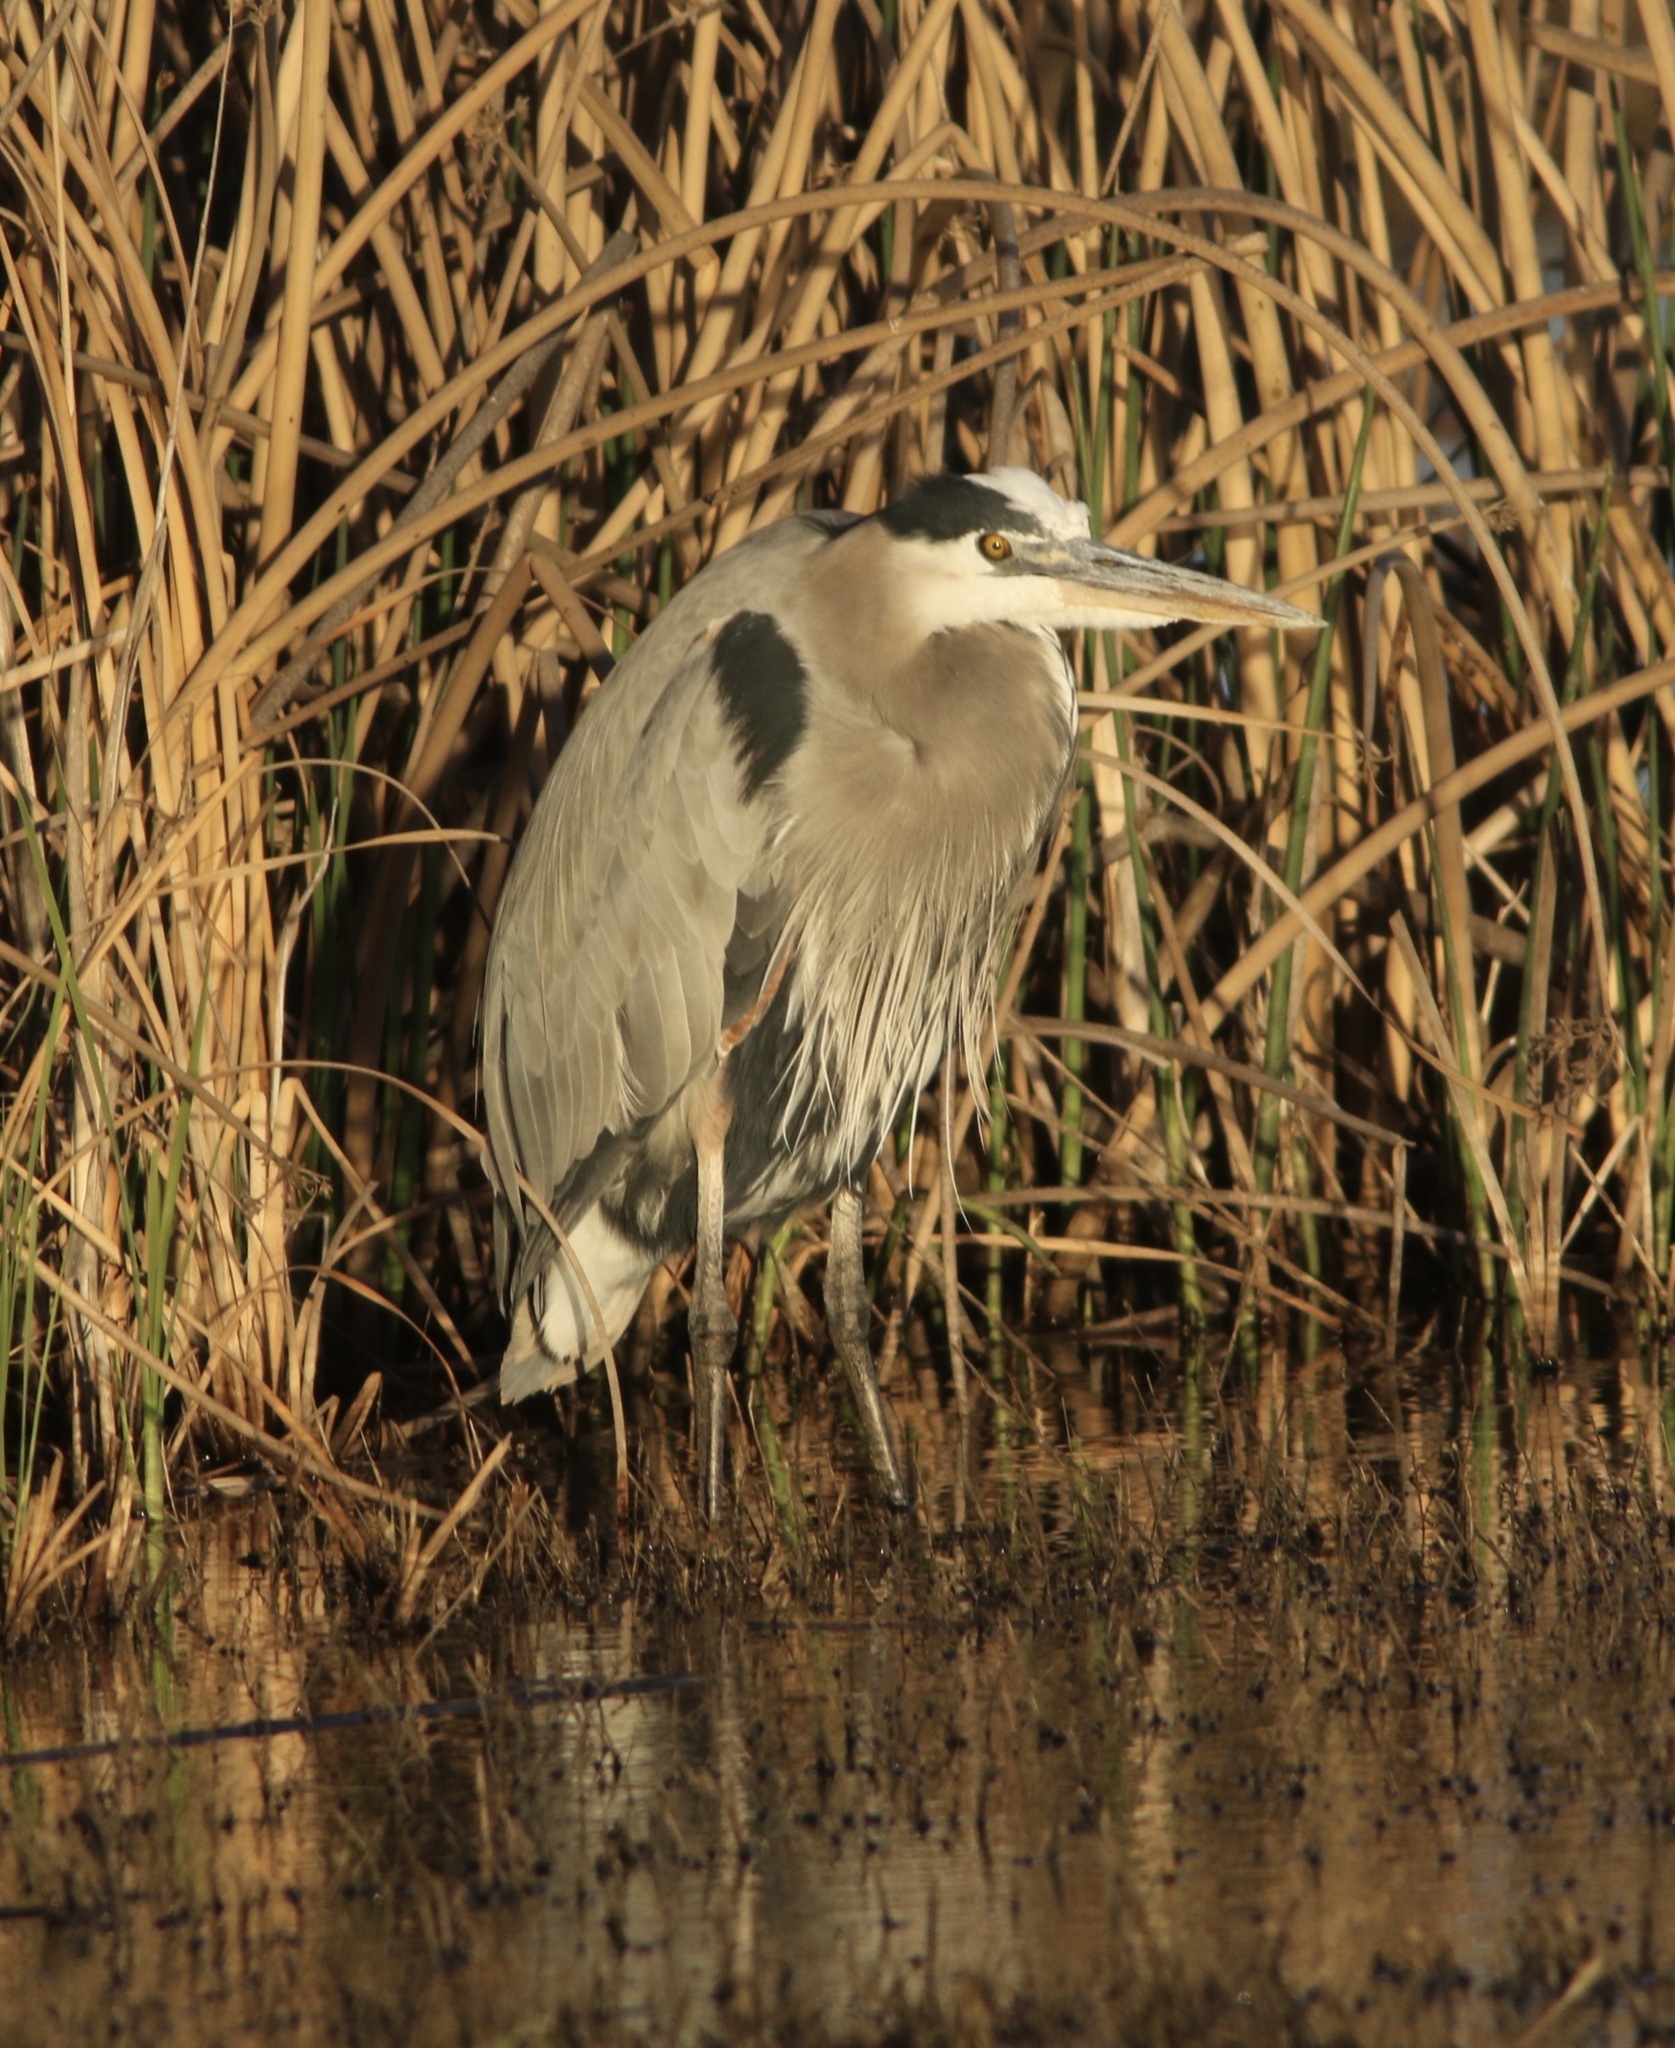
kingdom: Animalia
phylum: Chordata
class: Aves
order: Pelecaniformes
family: Ardeidae
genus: Ardea
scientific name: Ardea herodias
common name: Great blue heron
